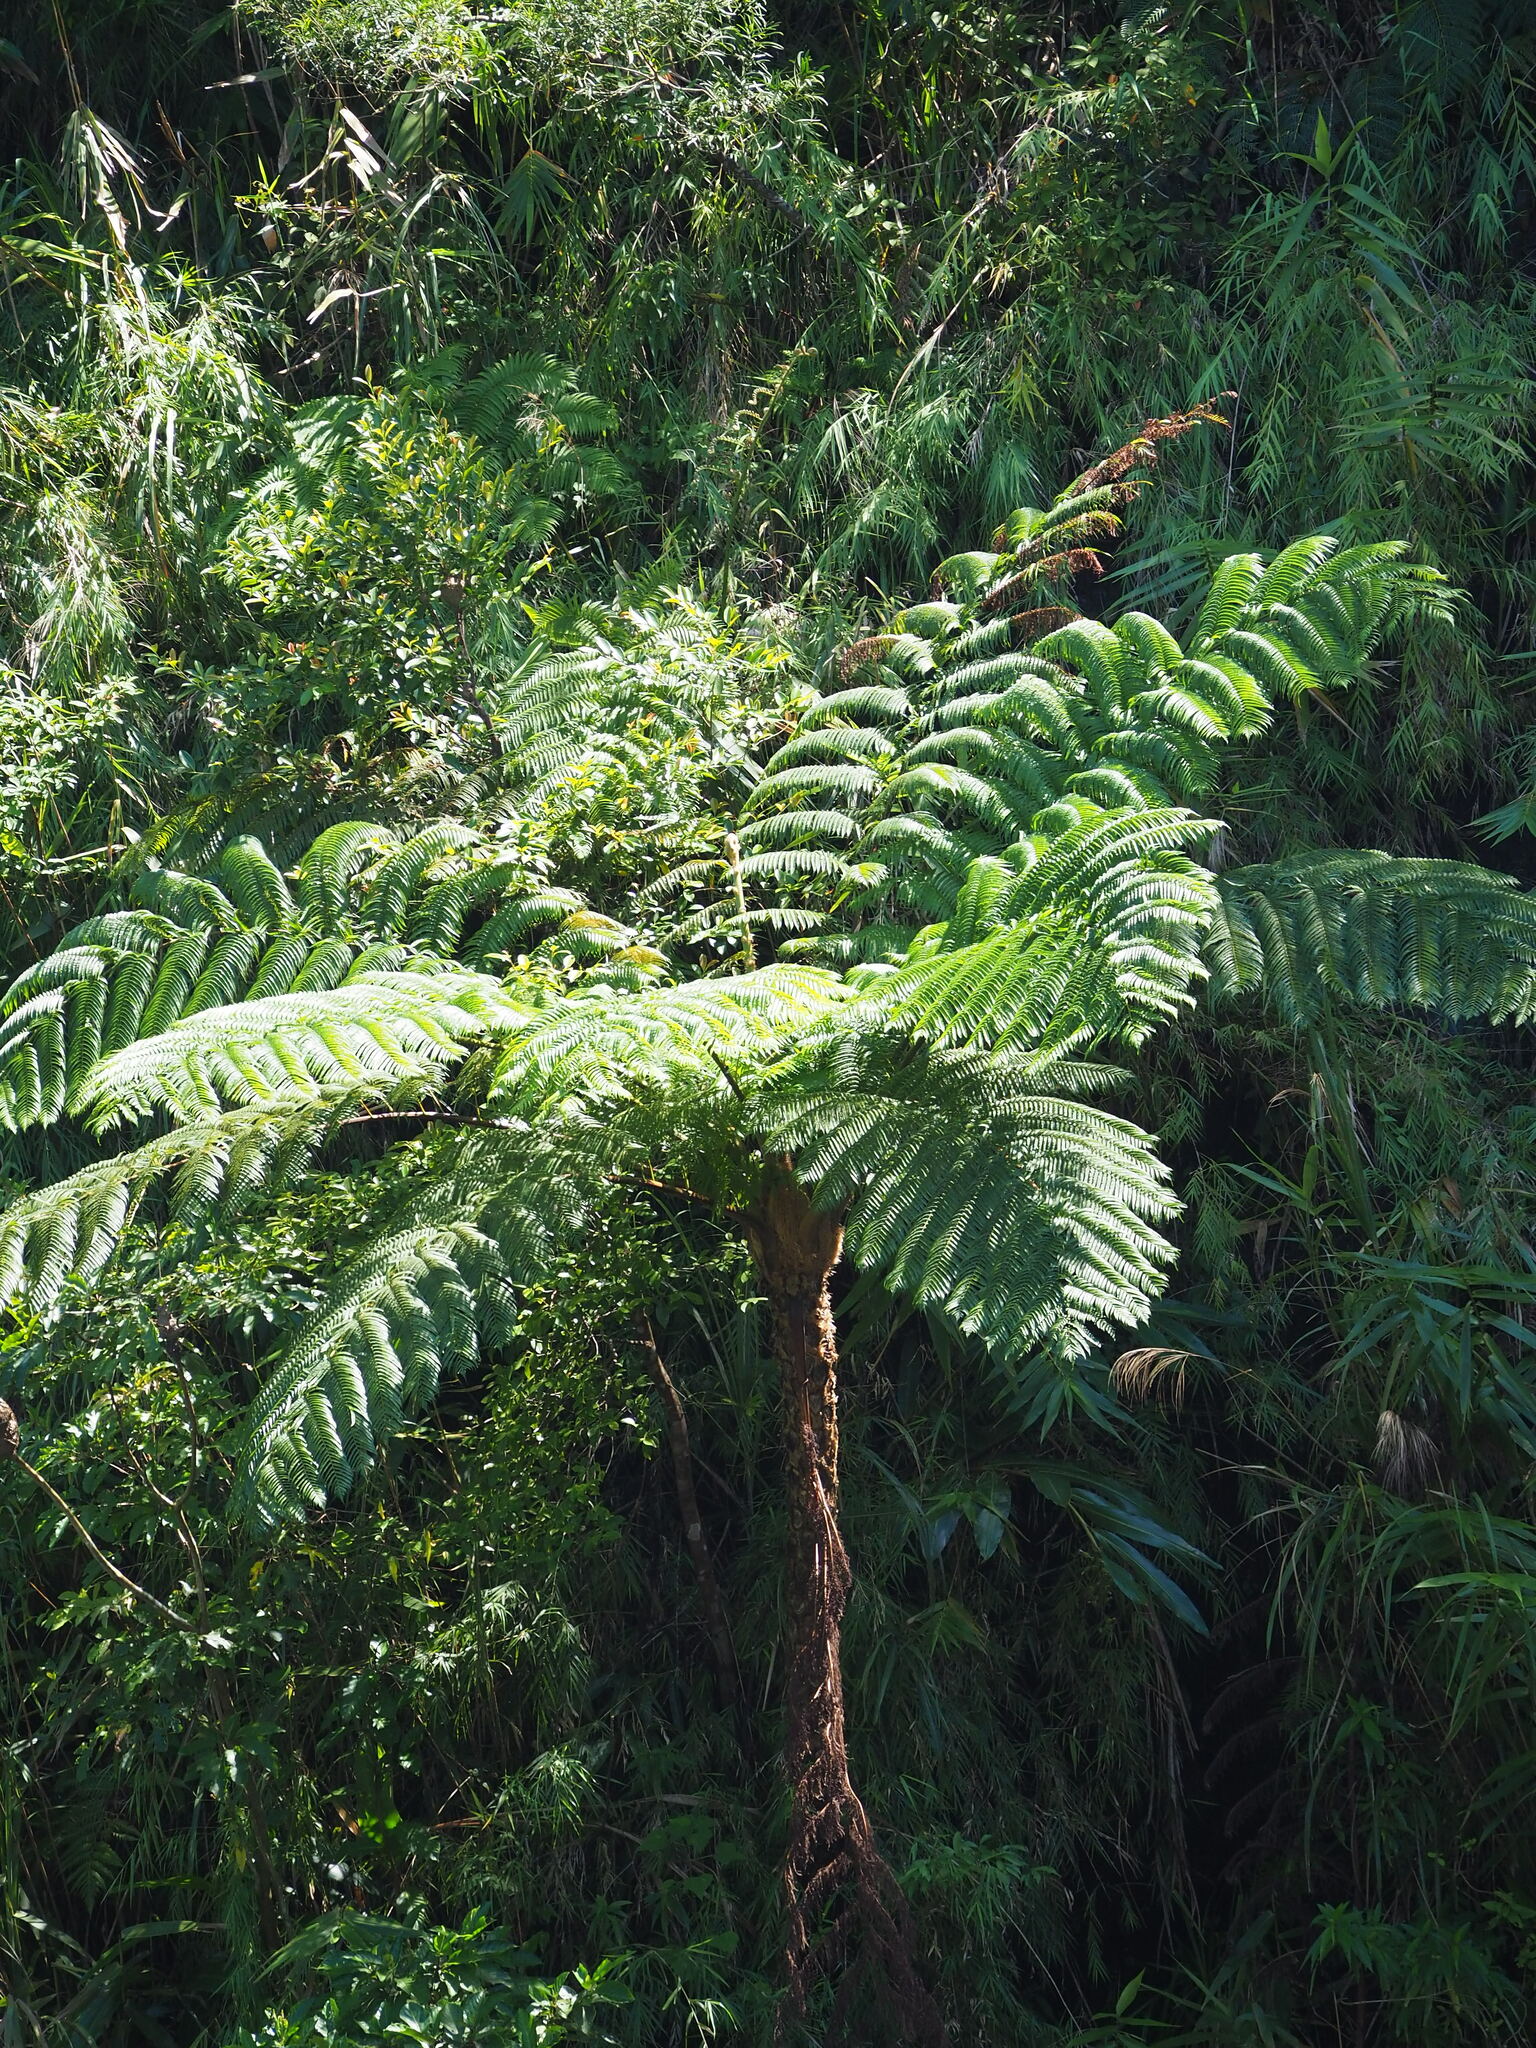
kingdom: Plantae
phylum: Tracheophyta
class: Polypodiopsida
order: Cyatheales
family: Cyatheaceae
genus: Alsophila
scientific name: Alsophila lepifera
